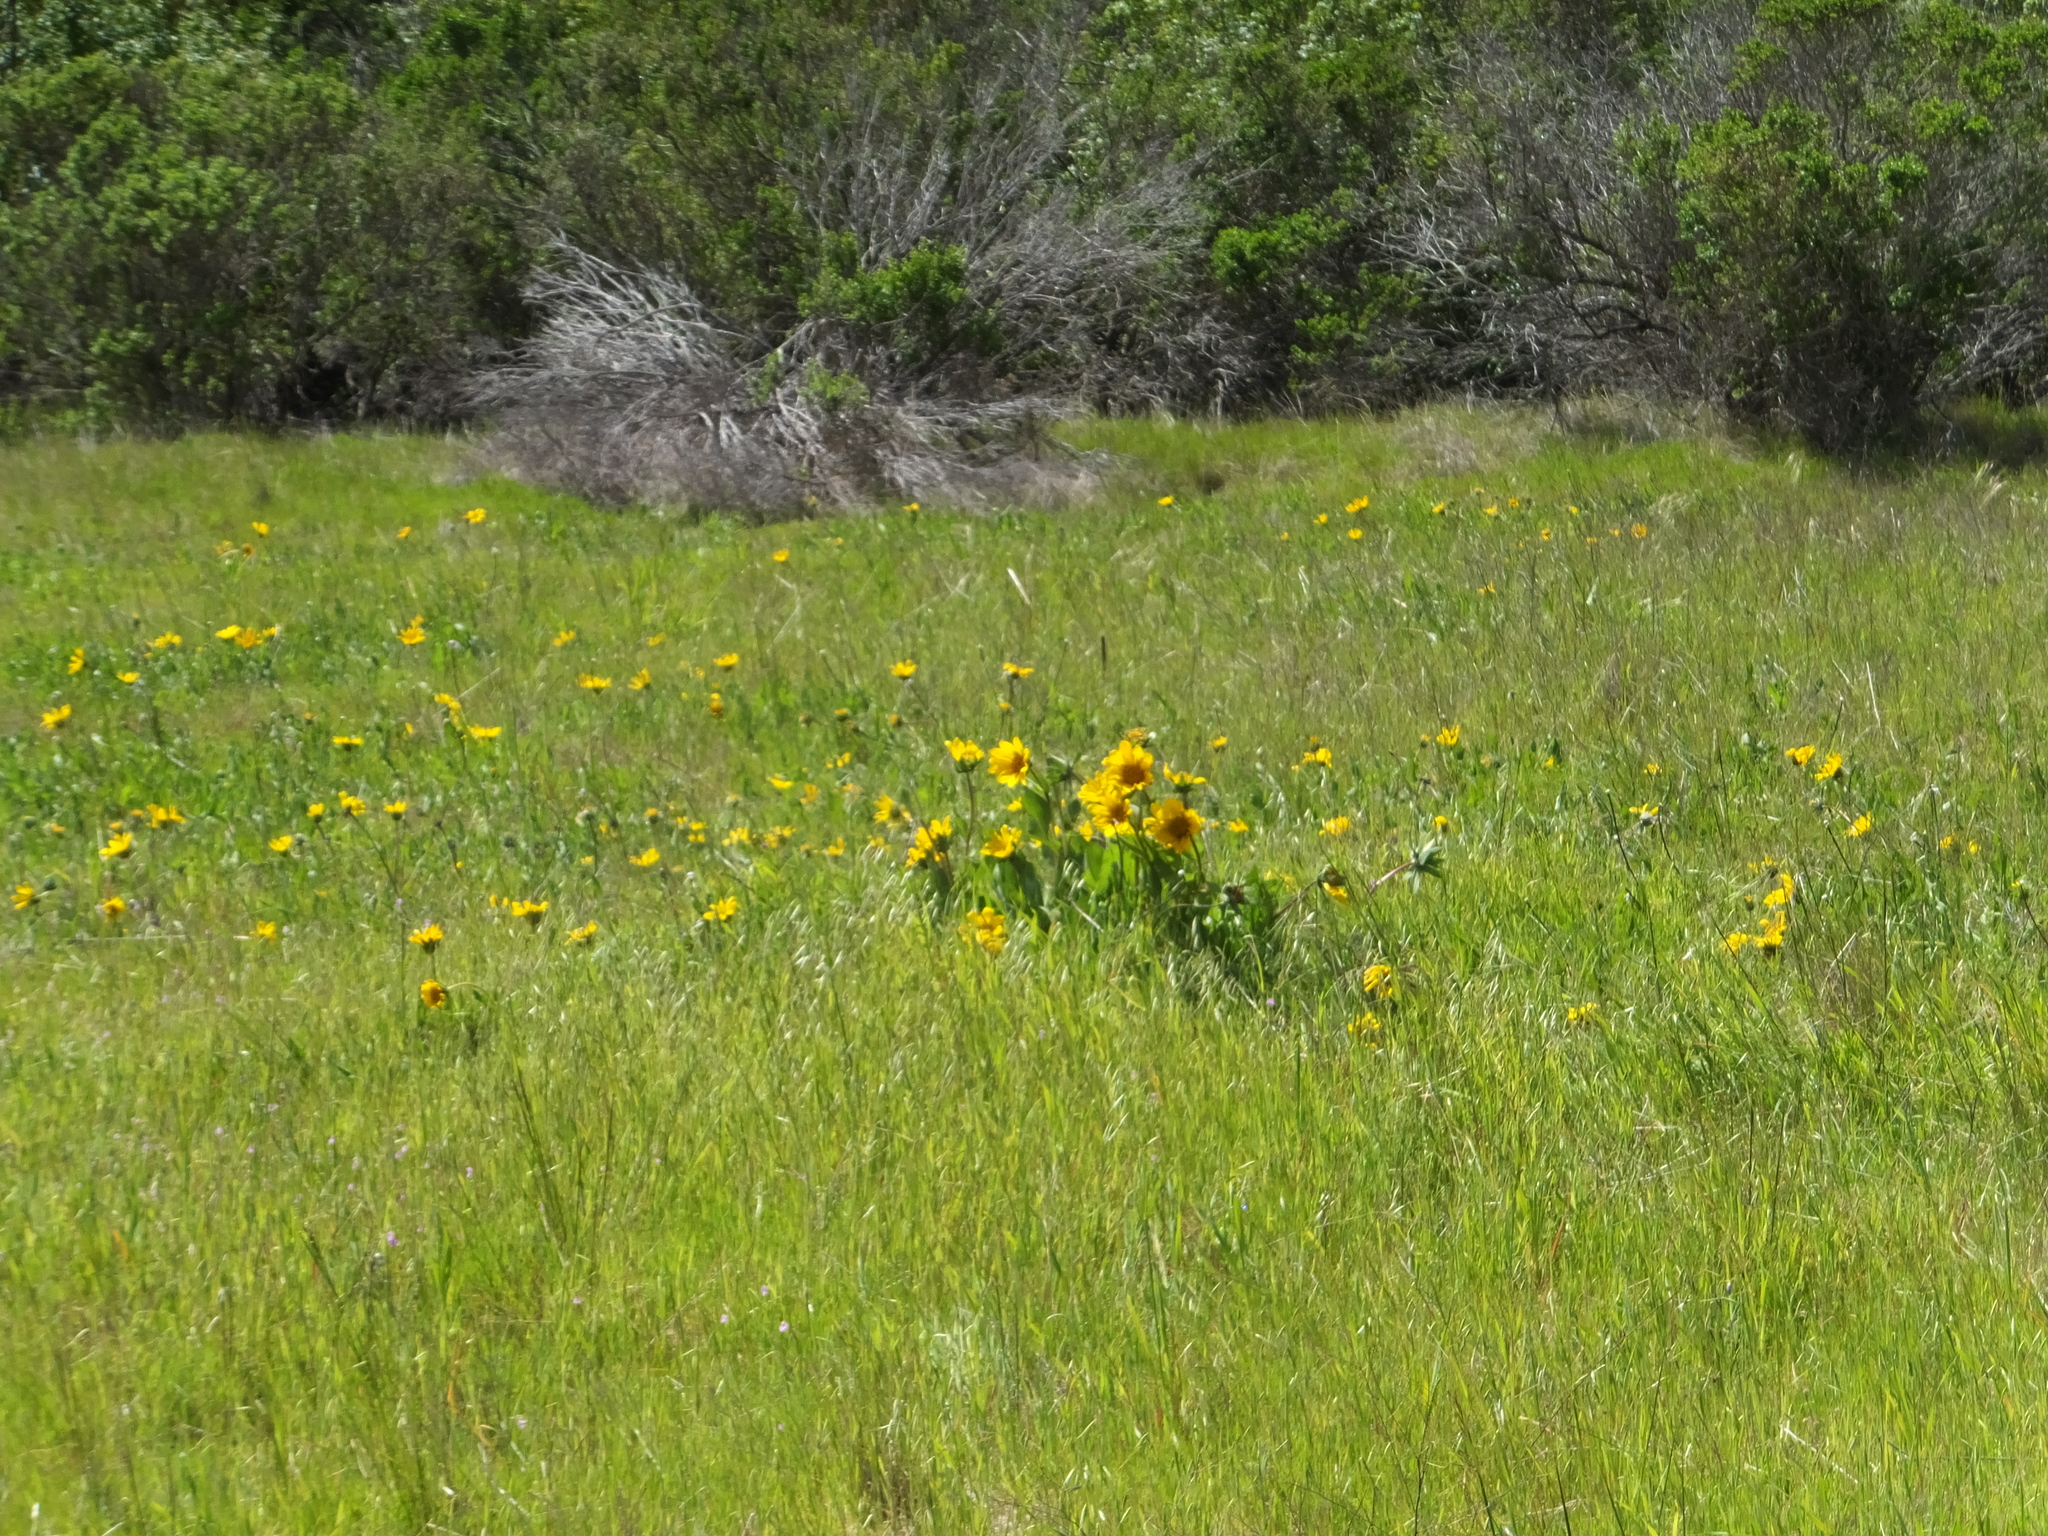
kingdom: Plantae
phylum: Tracheophyta
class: Magnoliopsida
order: Asterales
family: Asteraceae
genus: Wyethia
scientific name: Wyethia angustifolia
